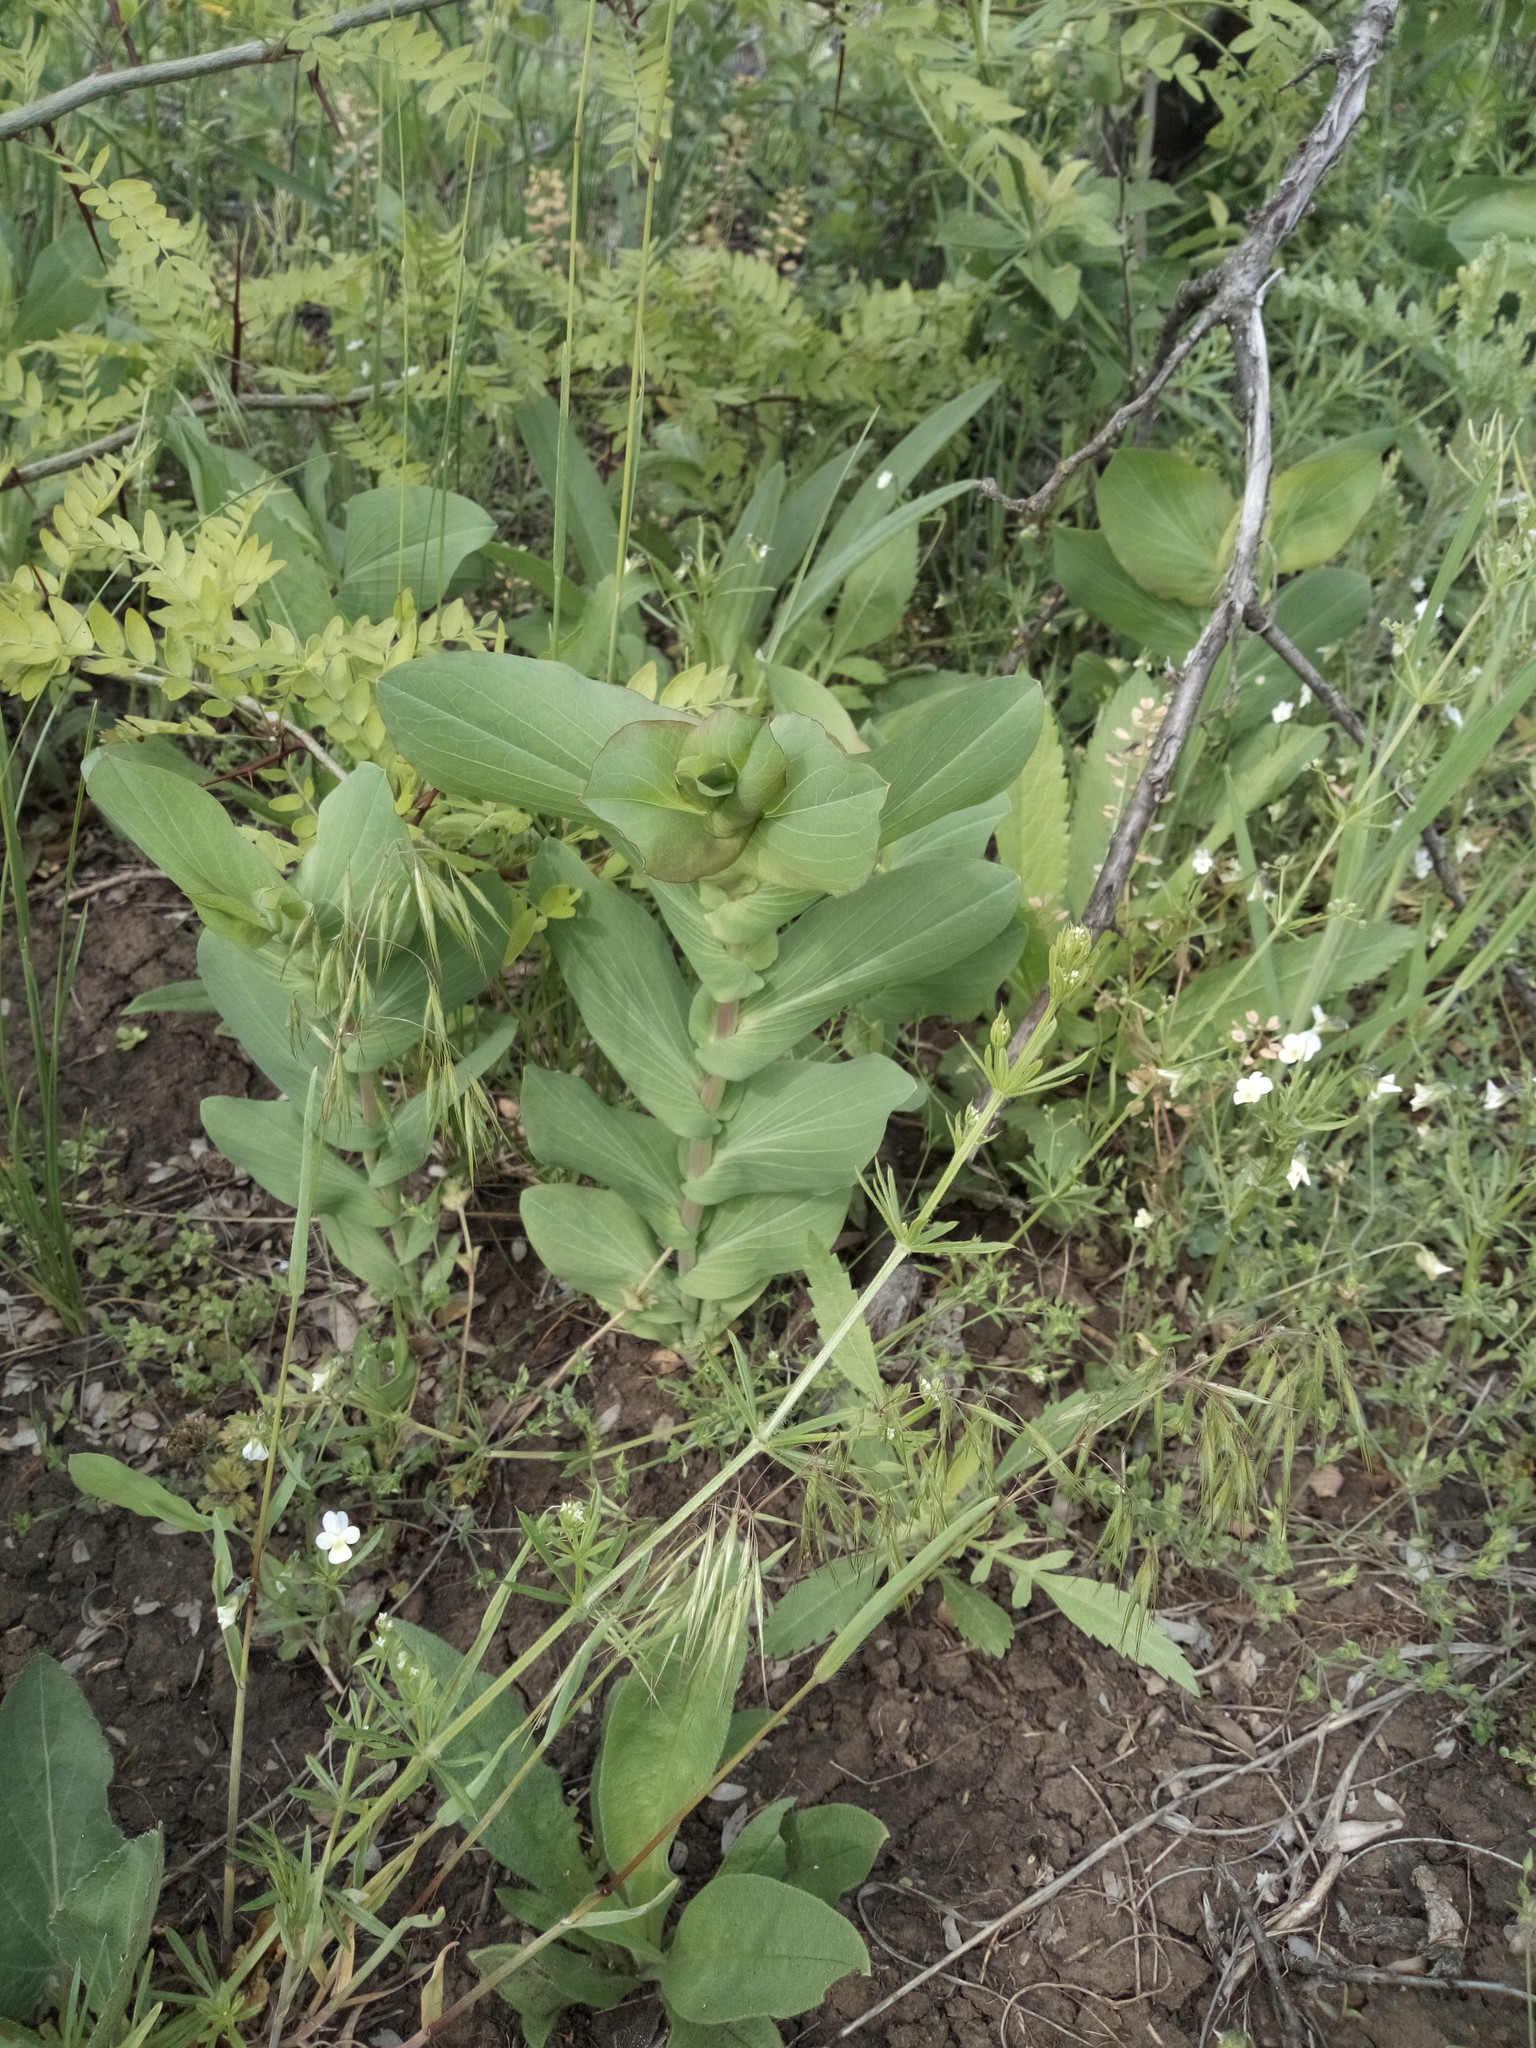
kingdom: Plantae
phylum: Tracheophyta
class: Magnoliopsida
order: Boraginales
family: Boraginaceae
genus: Cerinthe
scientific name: Cerinthe minor
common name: Lesser honeywort
